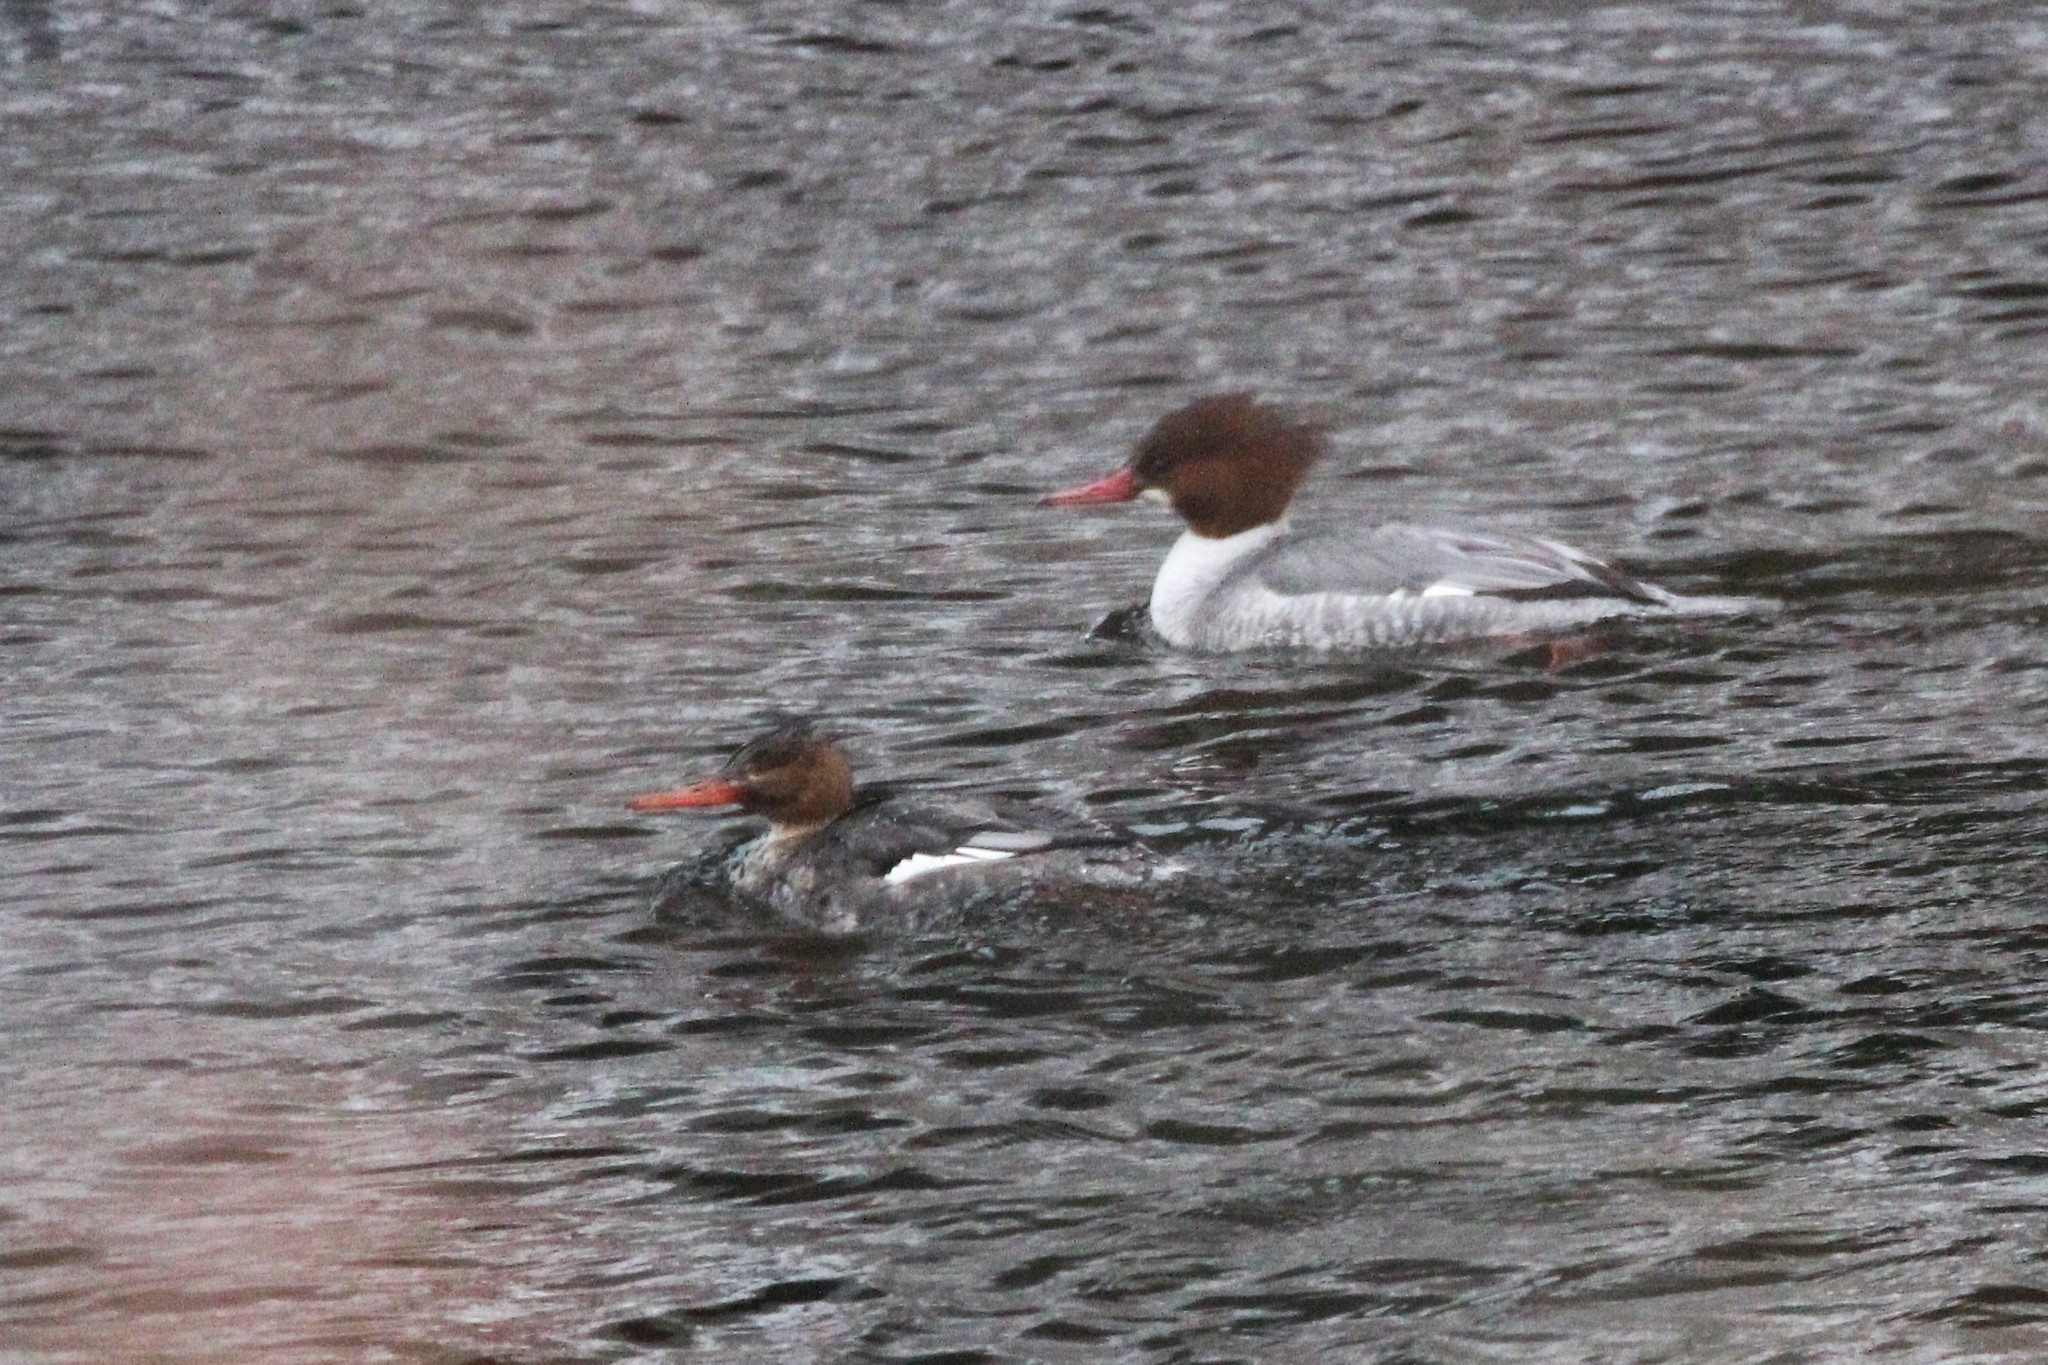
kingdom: Animalia
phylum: Chordata
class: Aves
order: Anseriformes
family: Anatidae
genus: Mergus
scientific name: Mergus serrator
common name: Red-breasted merganser
